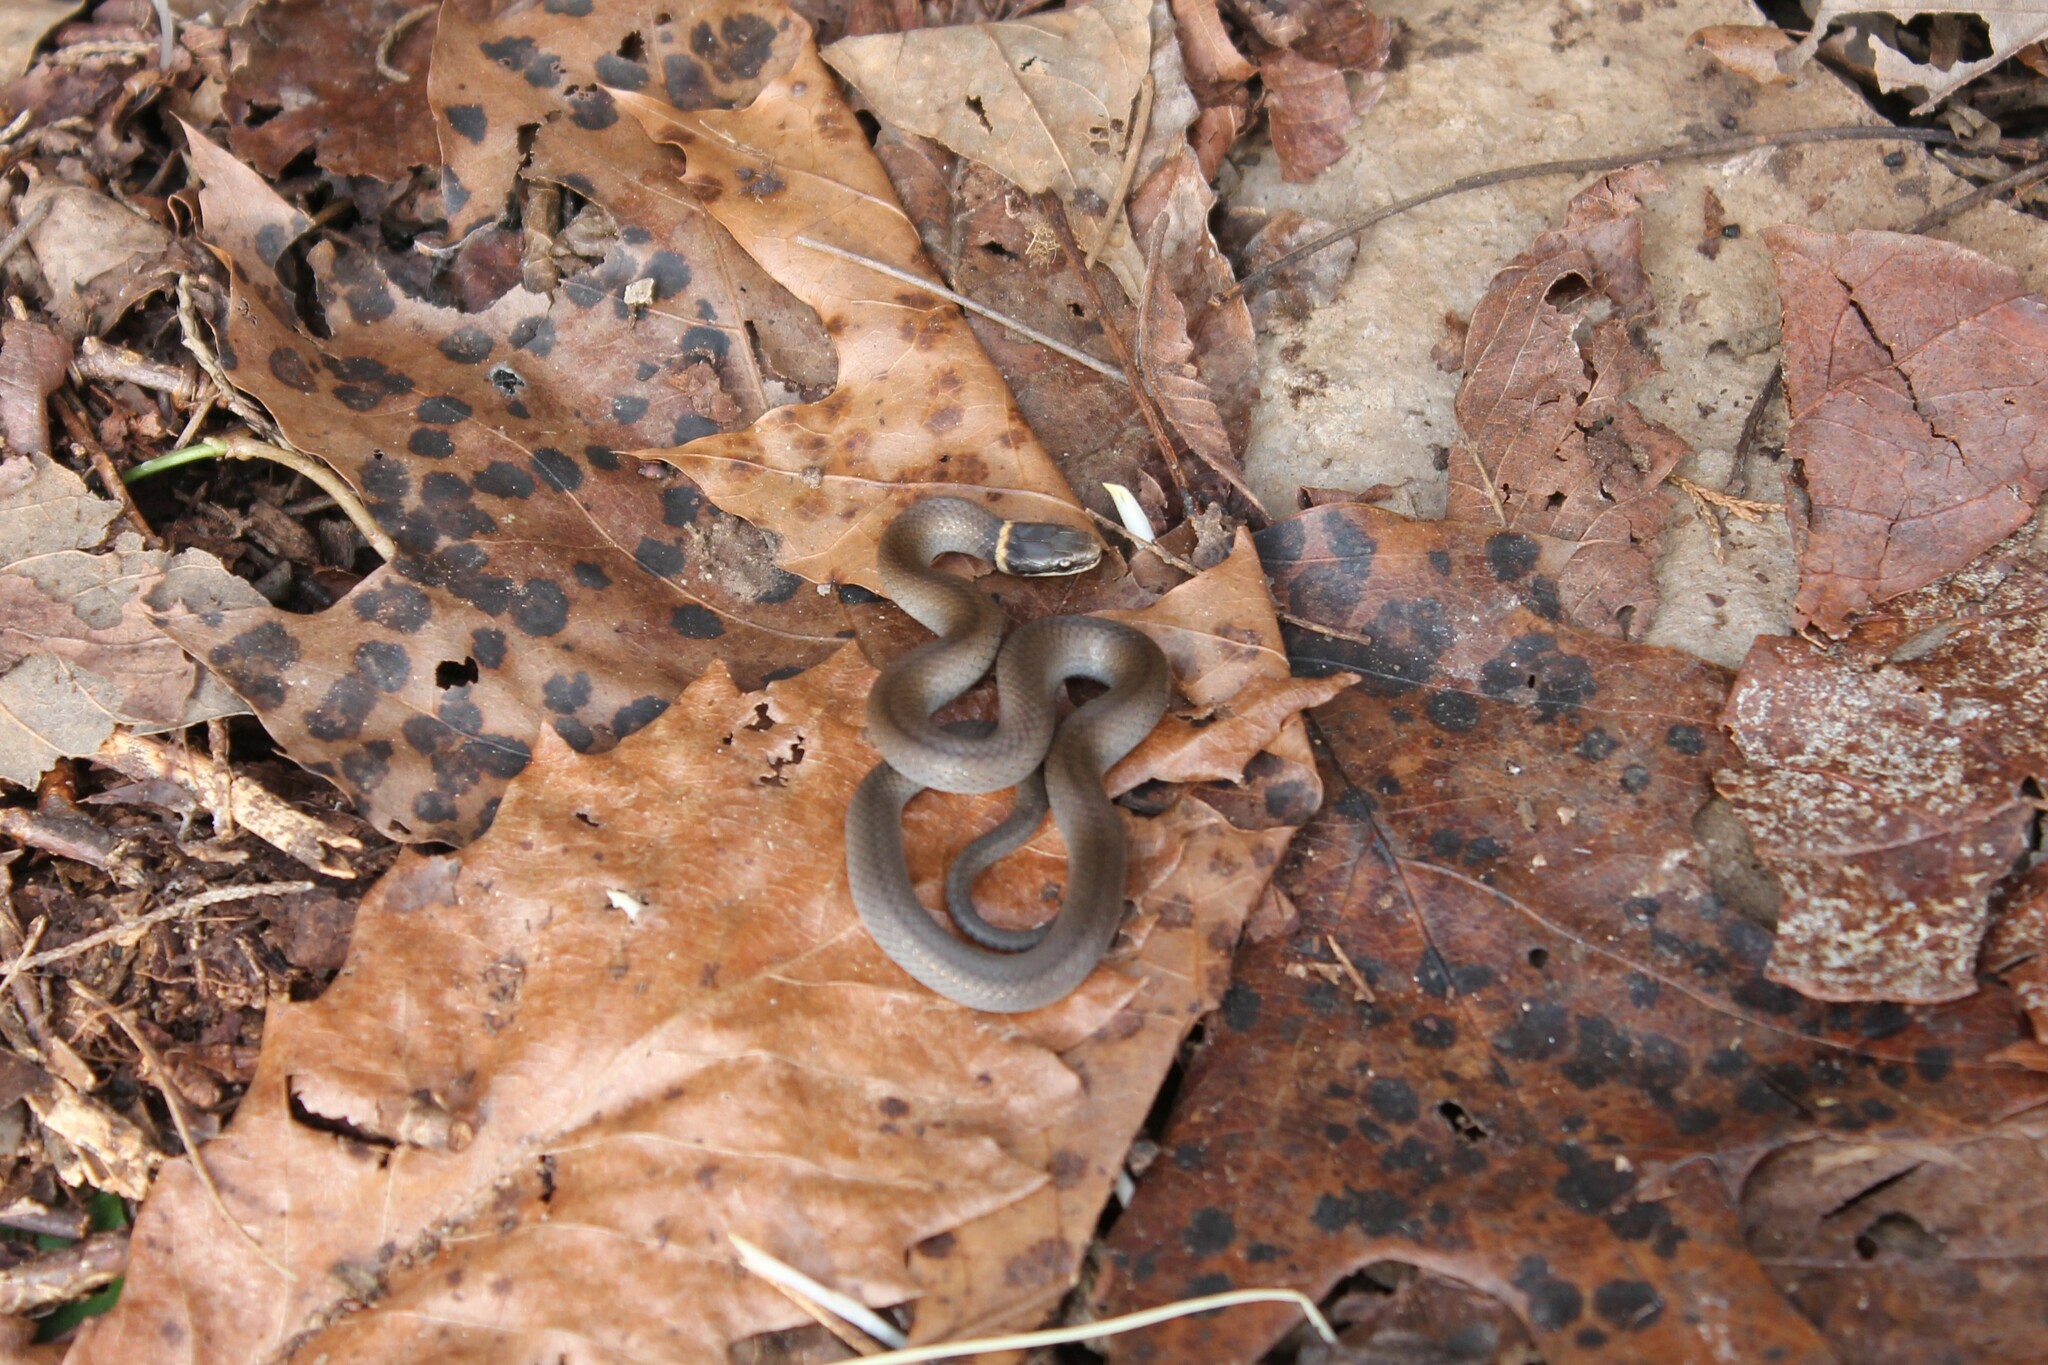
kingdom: Animalia
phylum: Chordata
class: Squamata
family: Colubridae
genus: Diadophis
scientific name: Diadophis punctatus
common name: Ringneck snake
